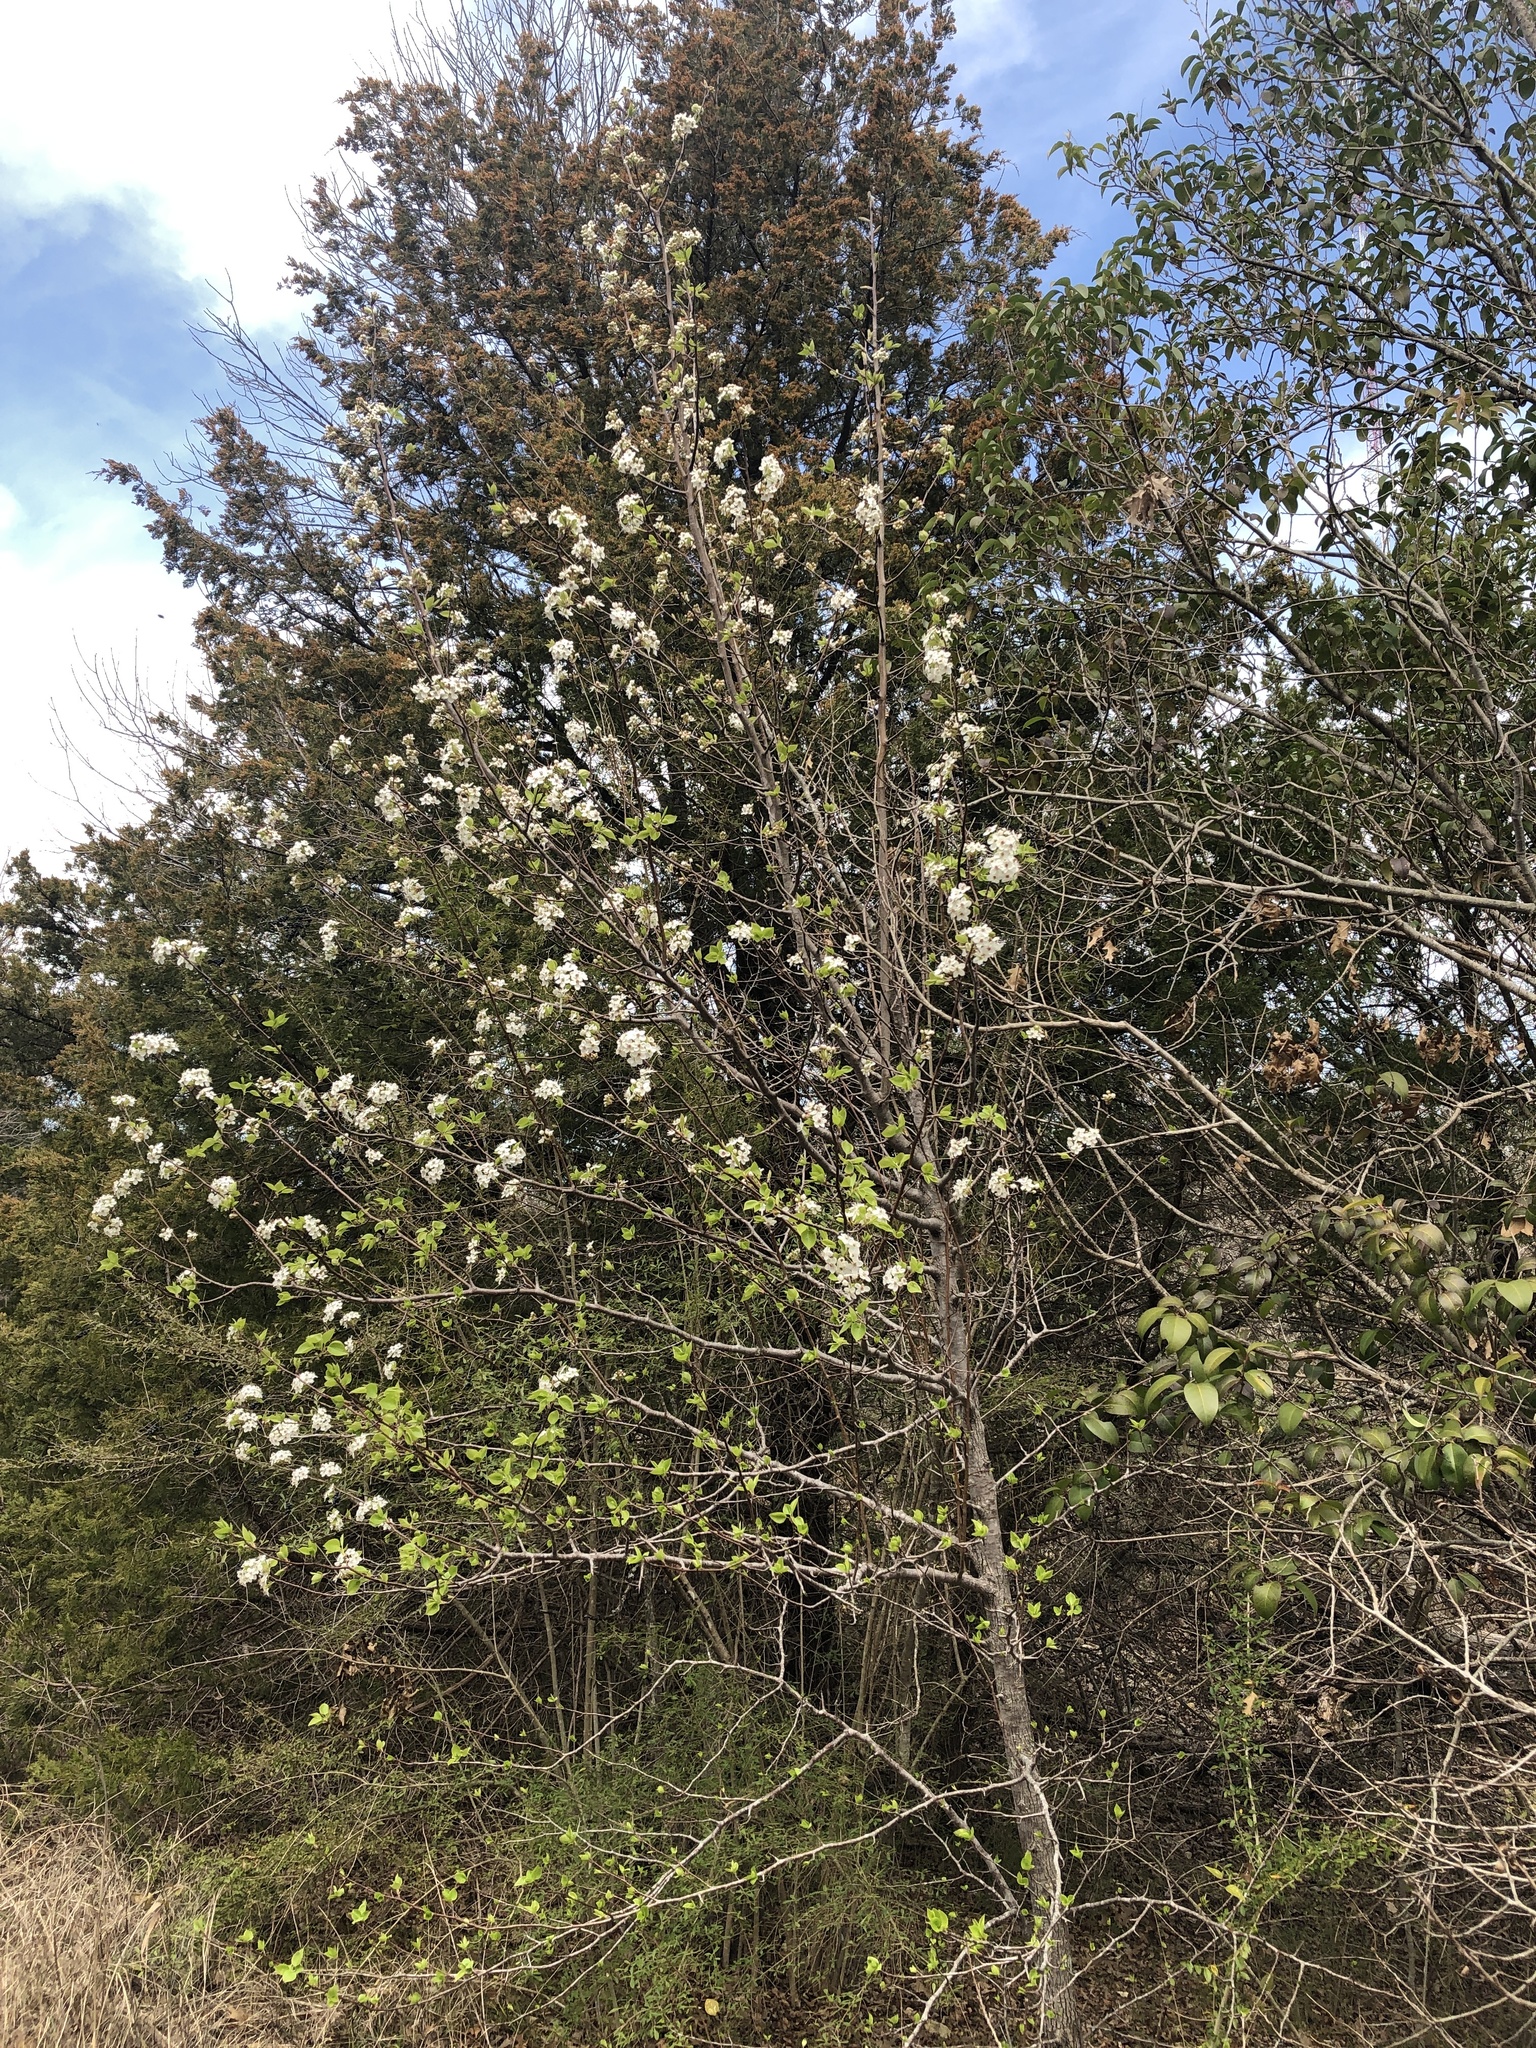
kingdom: Plantae
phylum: Tracheophyta
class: Magnoliopsida
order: Rosales
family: Rosaceae
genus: Pyrus
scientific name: Pyrus calleryana
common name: Callery pear
